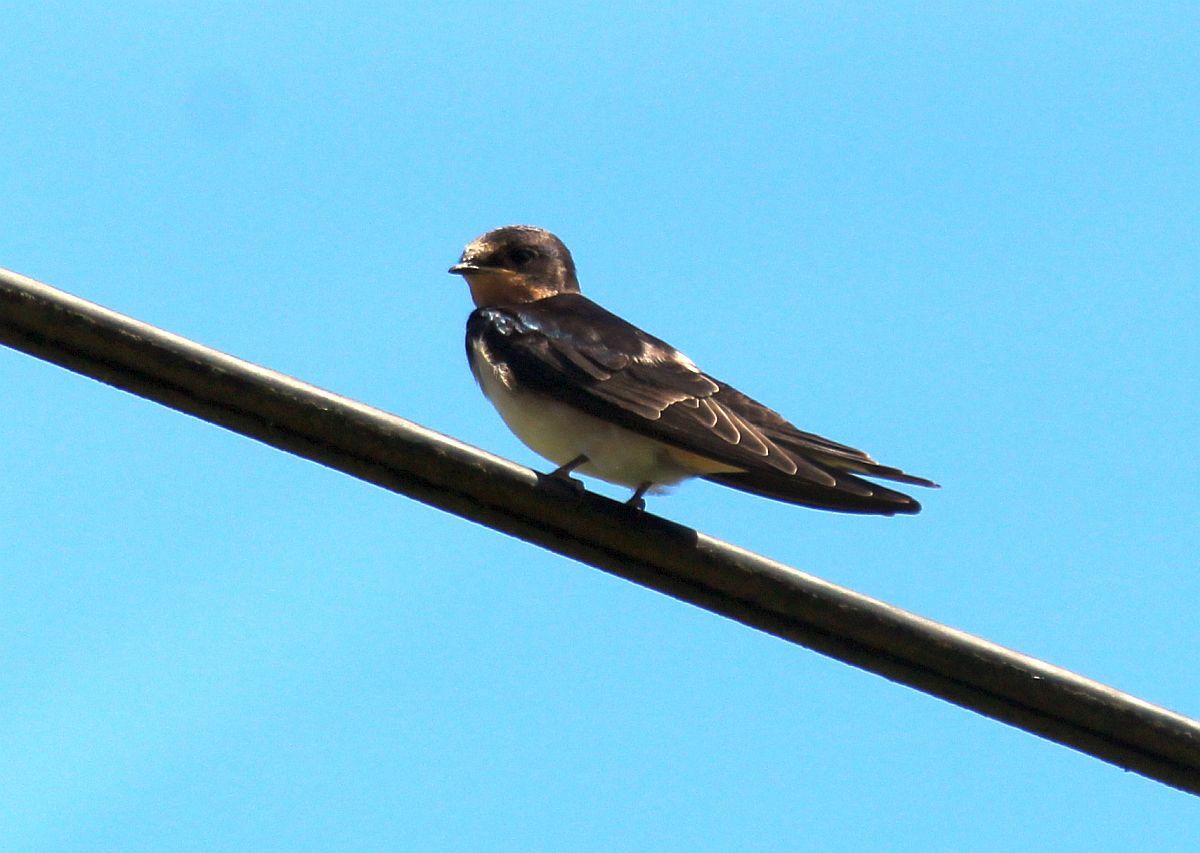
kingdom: Animalia
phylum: Chordata
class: Aves
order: Passeriformes
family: Hirundinidae
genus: Hirundo
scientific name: Hirundo rustica
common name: Barn swallow
